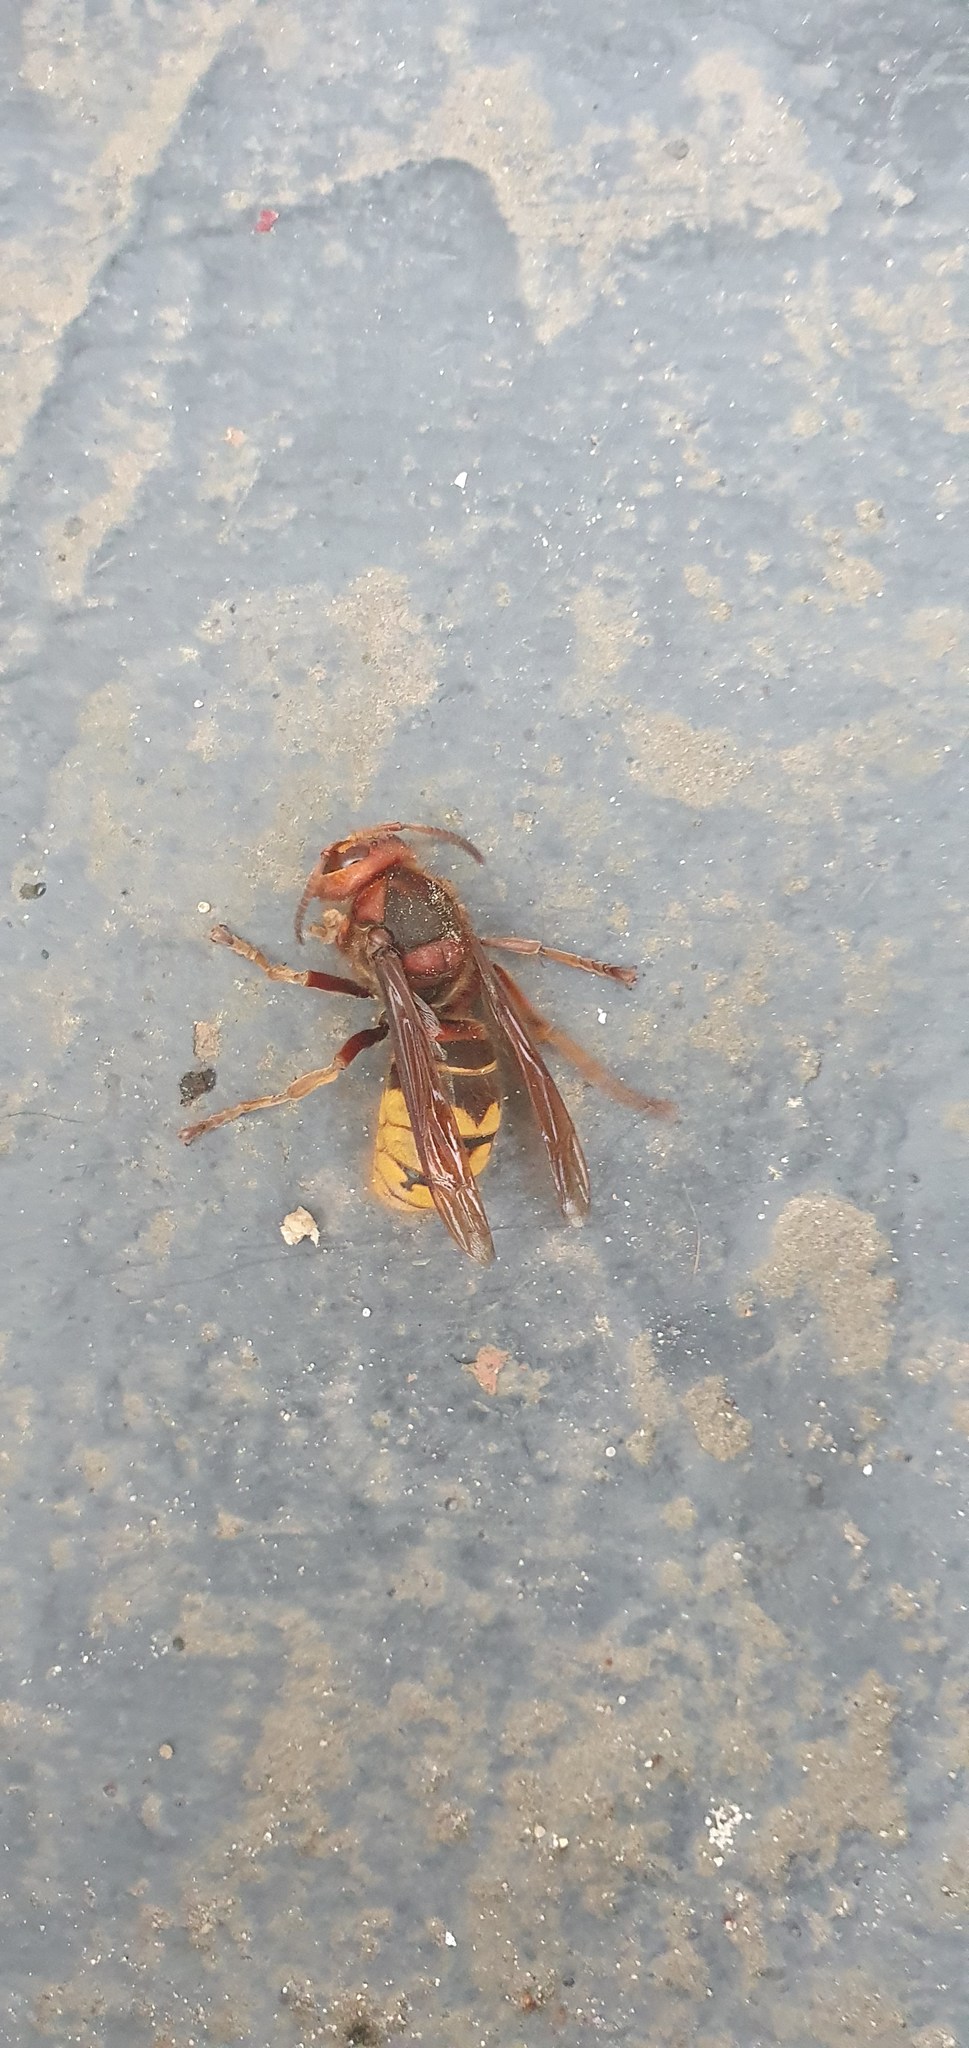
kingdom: Animalia
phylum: Arthropoda
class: Insecta
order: Hymenoptera
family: Vespidae
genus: Vespa
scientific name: Vespa crabro
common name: Hornet
